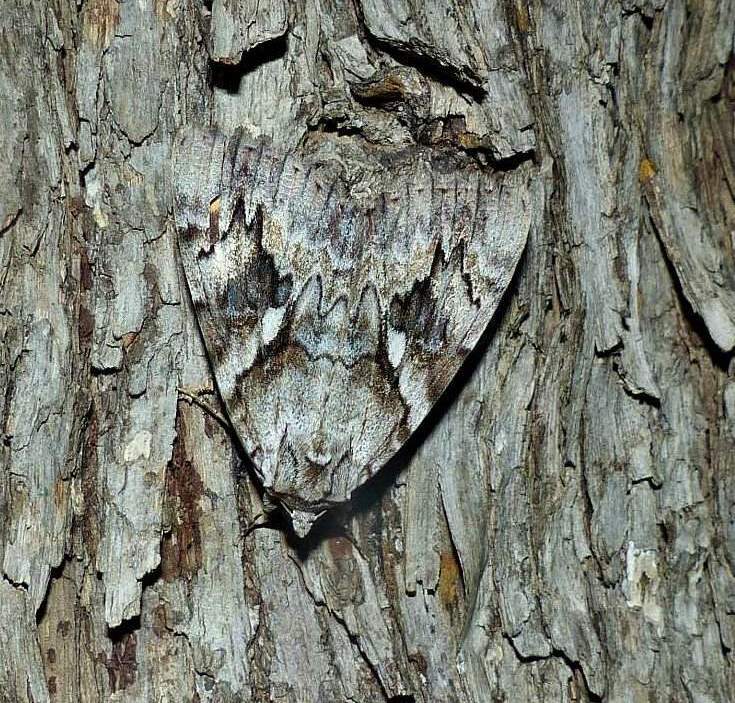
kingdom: Animalia
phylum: Arthropoda
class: Insecta
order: Lepidoptera
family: Erebidae
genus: Catocala
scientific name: Catocala cerogama
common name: Yellow banded underwing
